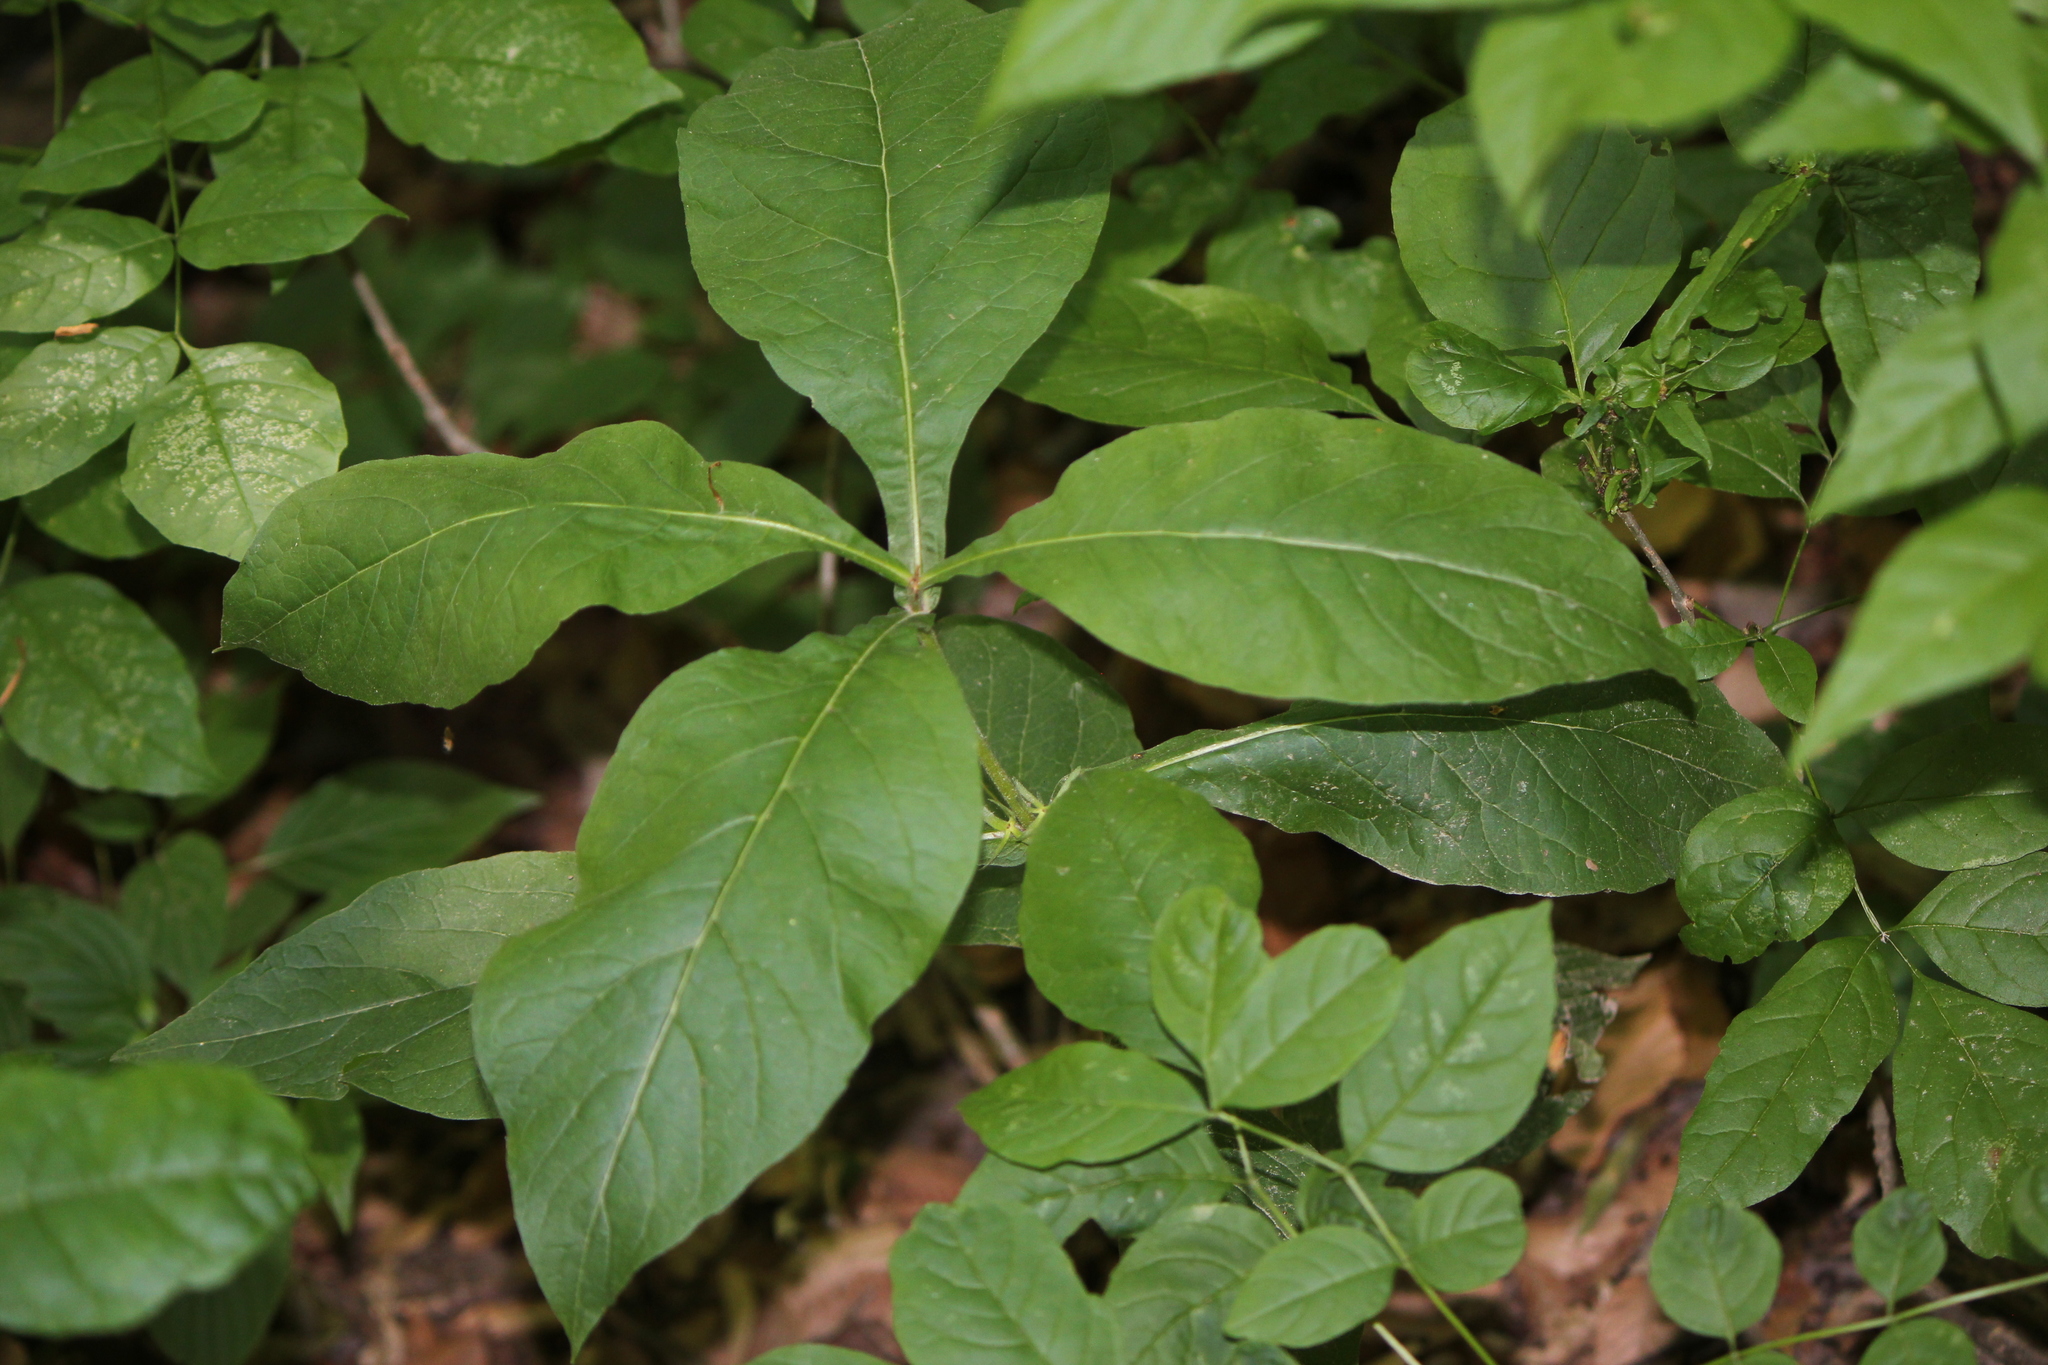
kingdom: Plantae
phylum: Tracheophyta
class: Magnoliopsida
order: Dipsacales
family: Caprifoliaceae
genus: Triosteum
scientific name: Triosteum aurantiacum
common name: Coffee tinker's-weed
